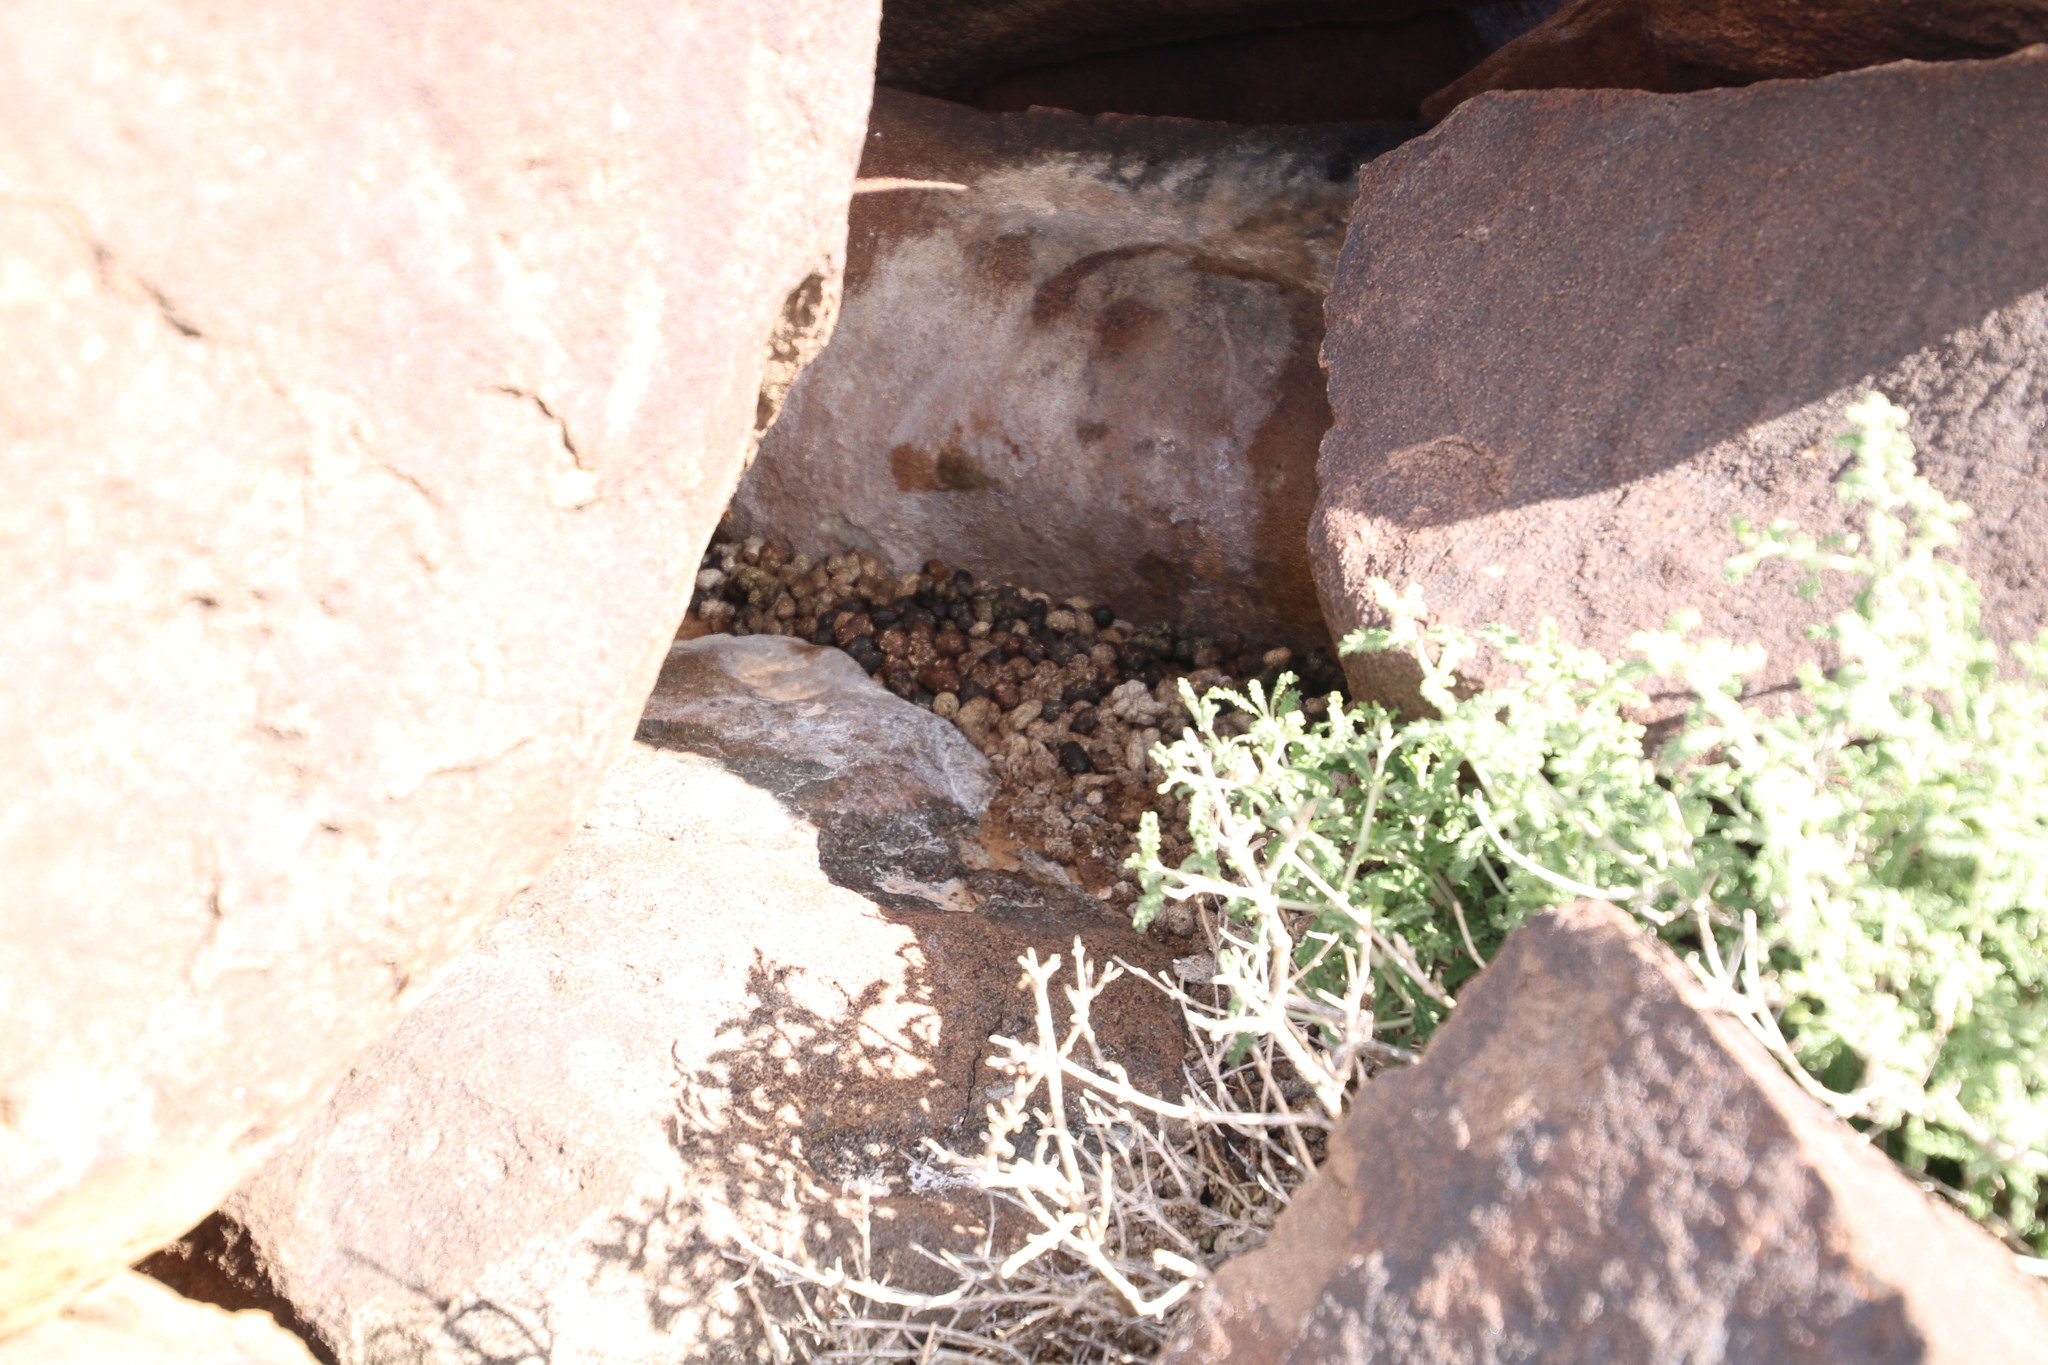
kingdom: Animalia
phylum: Chordata
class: Mammalia
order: Hyracoidea
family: Procaviidae
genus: Procavia
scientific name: Procavia capensis
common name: Rock hyrax
